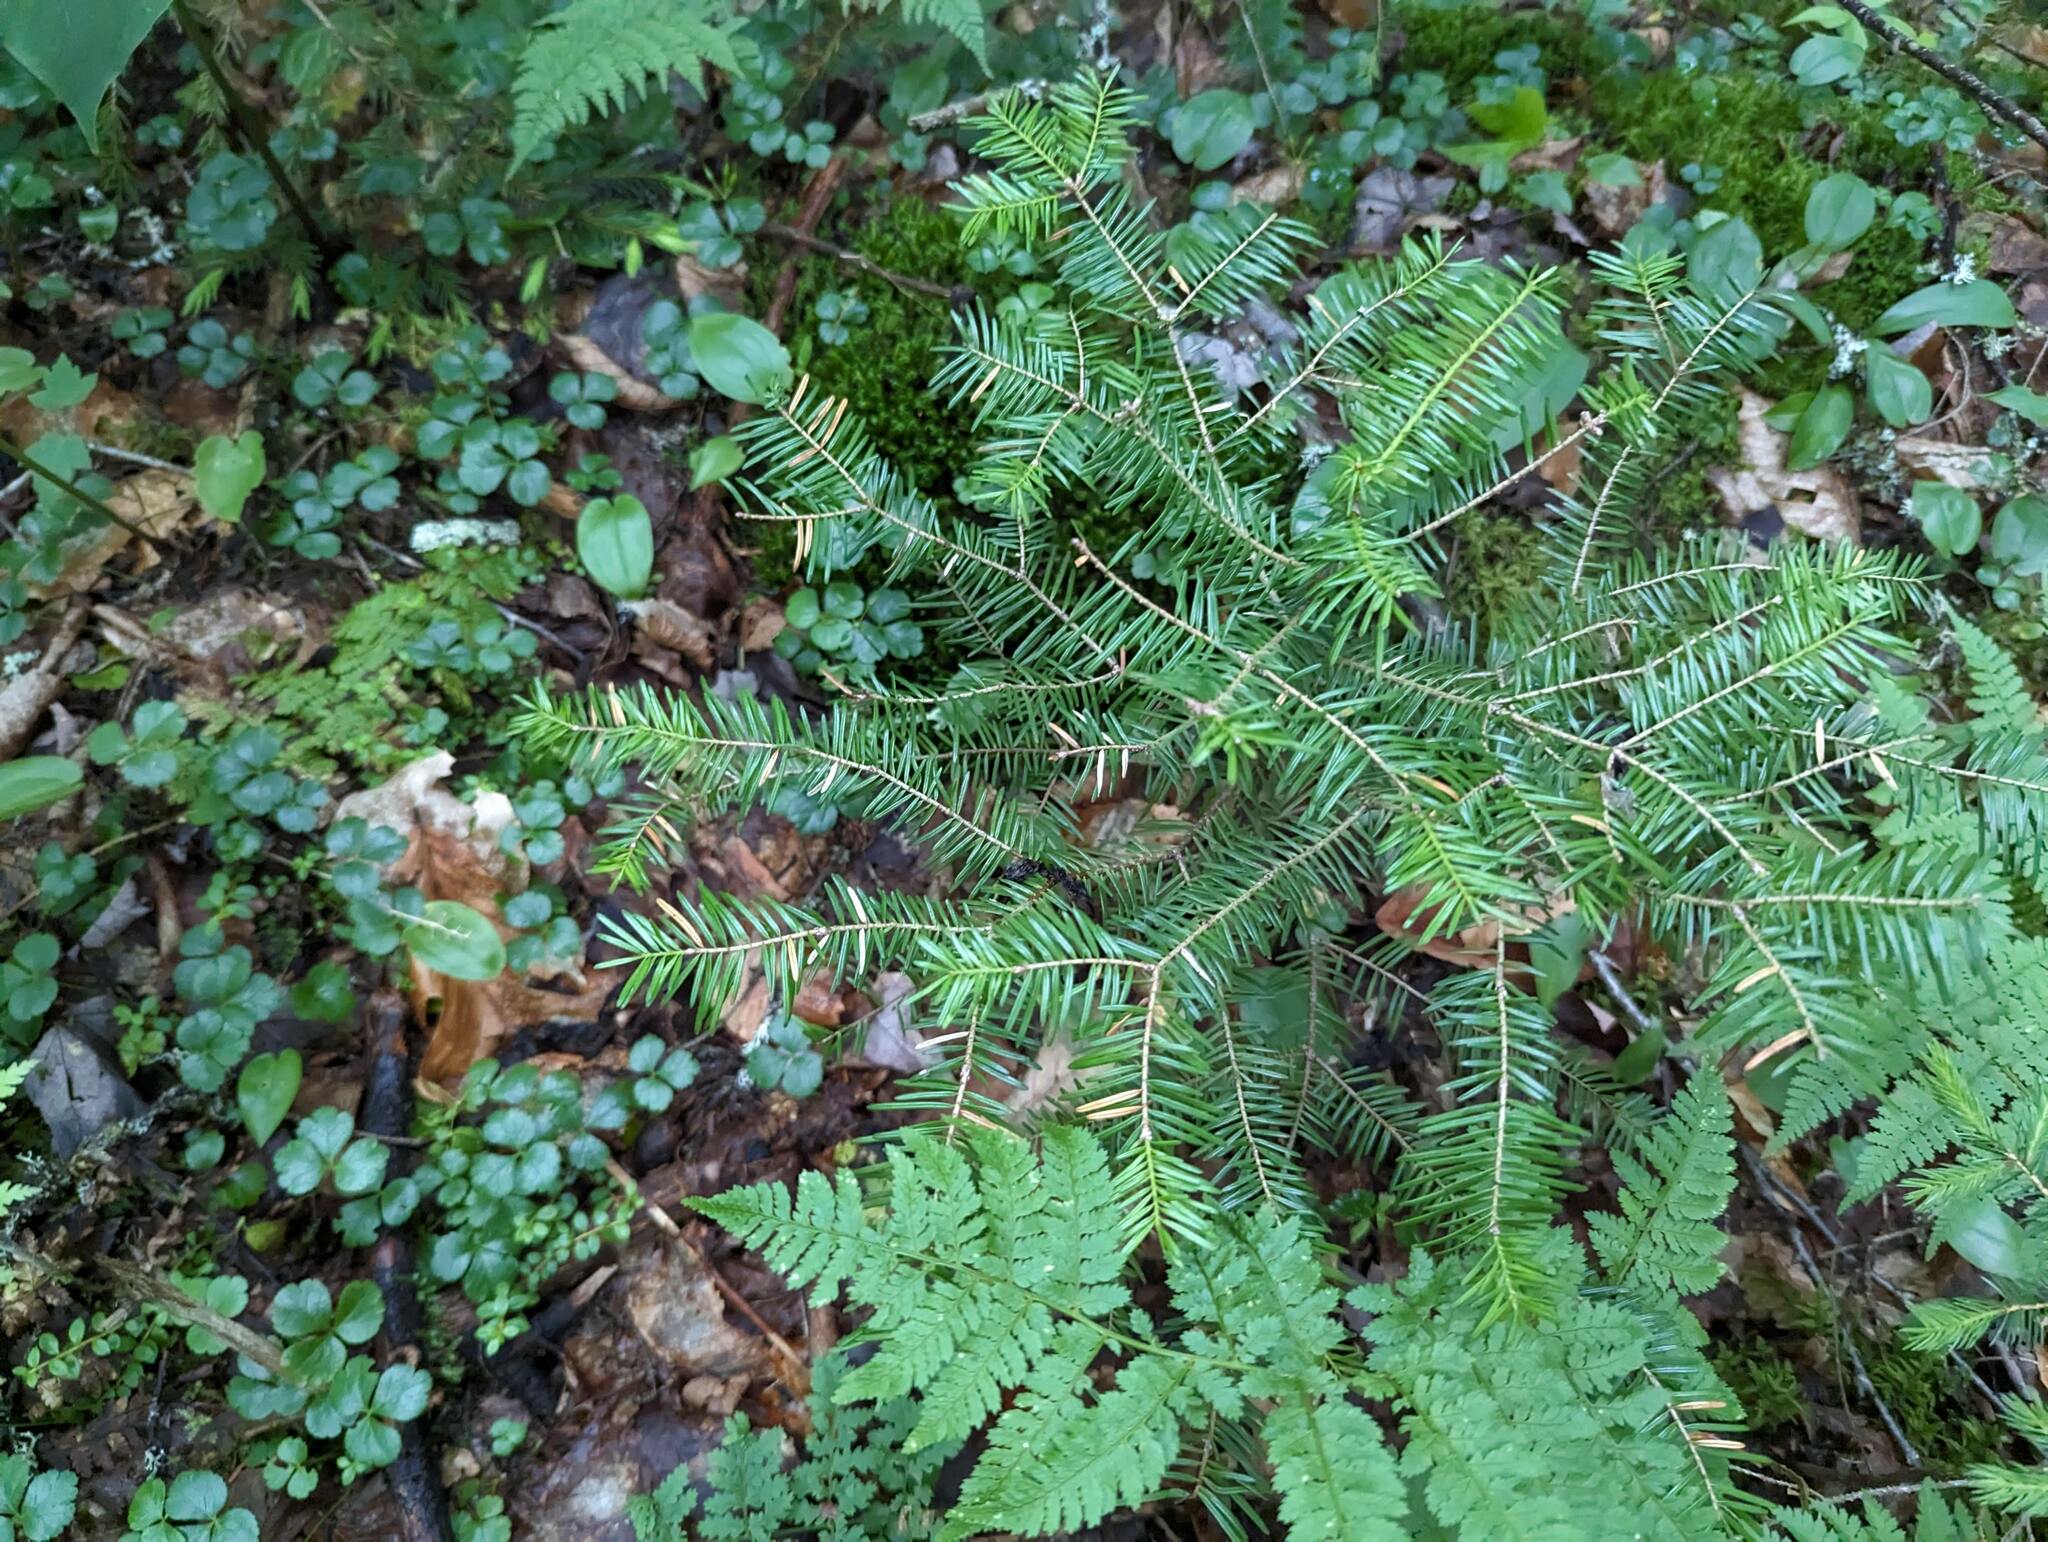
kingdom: Plantae
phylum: Tracheophyta
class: Pinopsida
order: Pinales
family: Pinaceae
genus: Abies
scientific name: Abies balsamea
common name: Balsam fir
